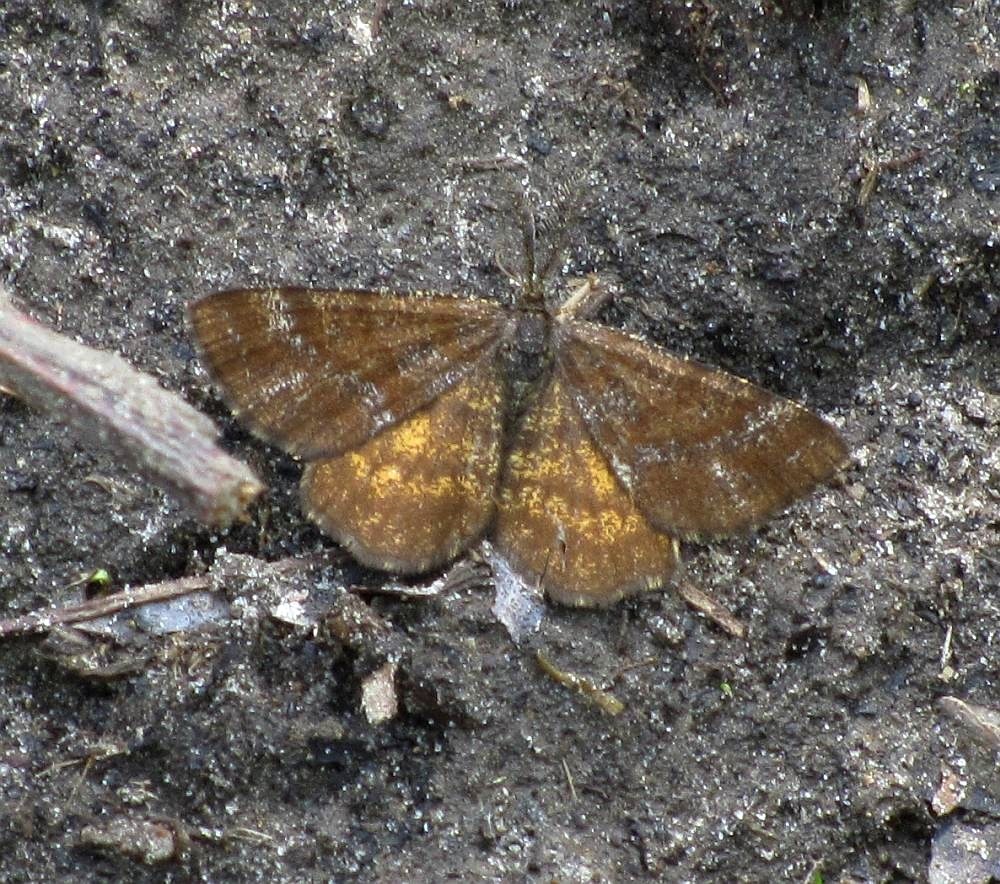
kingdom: Animalia
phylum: Arthropoda
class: Insecta
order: Lepidoptera
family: Geometridae
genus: Ematurga
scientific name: Ematurga amitaria
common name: Cranberry spanworm moth
